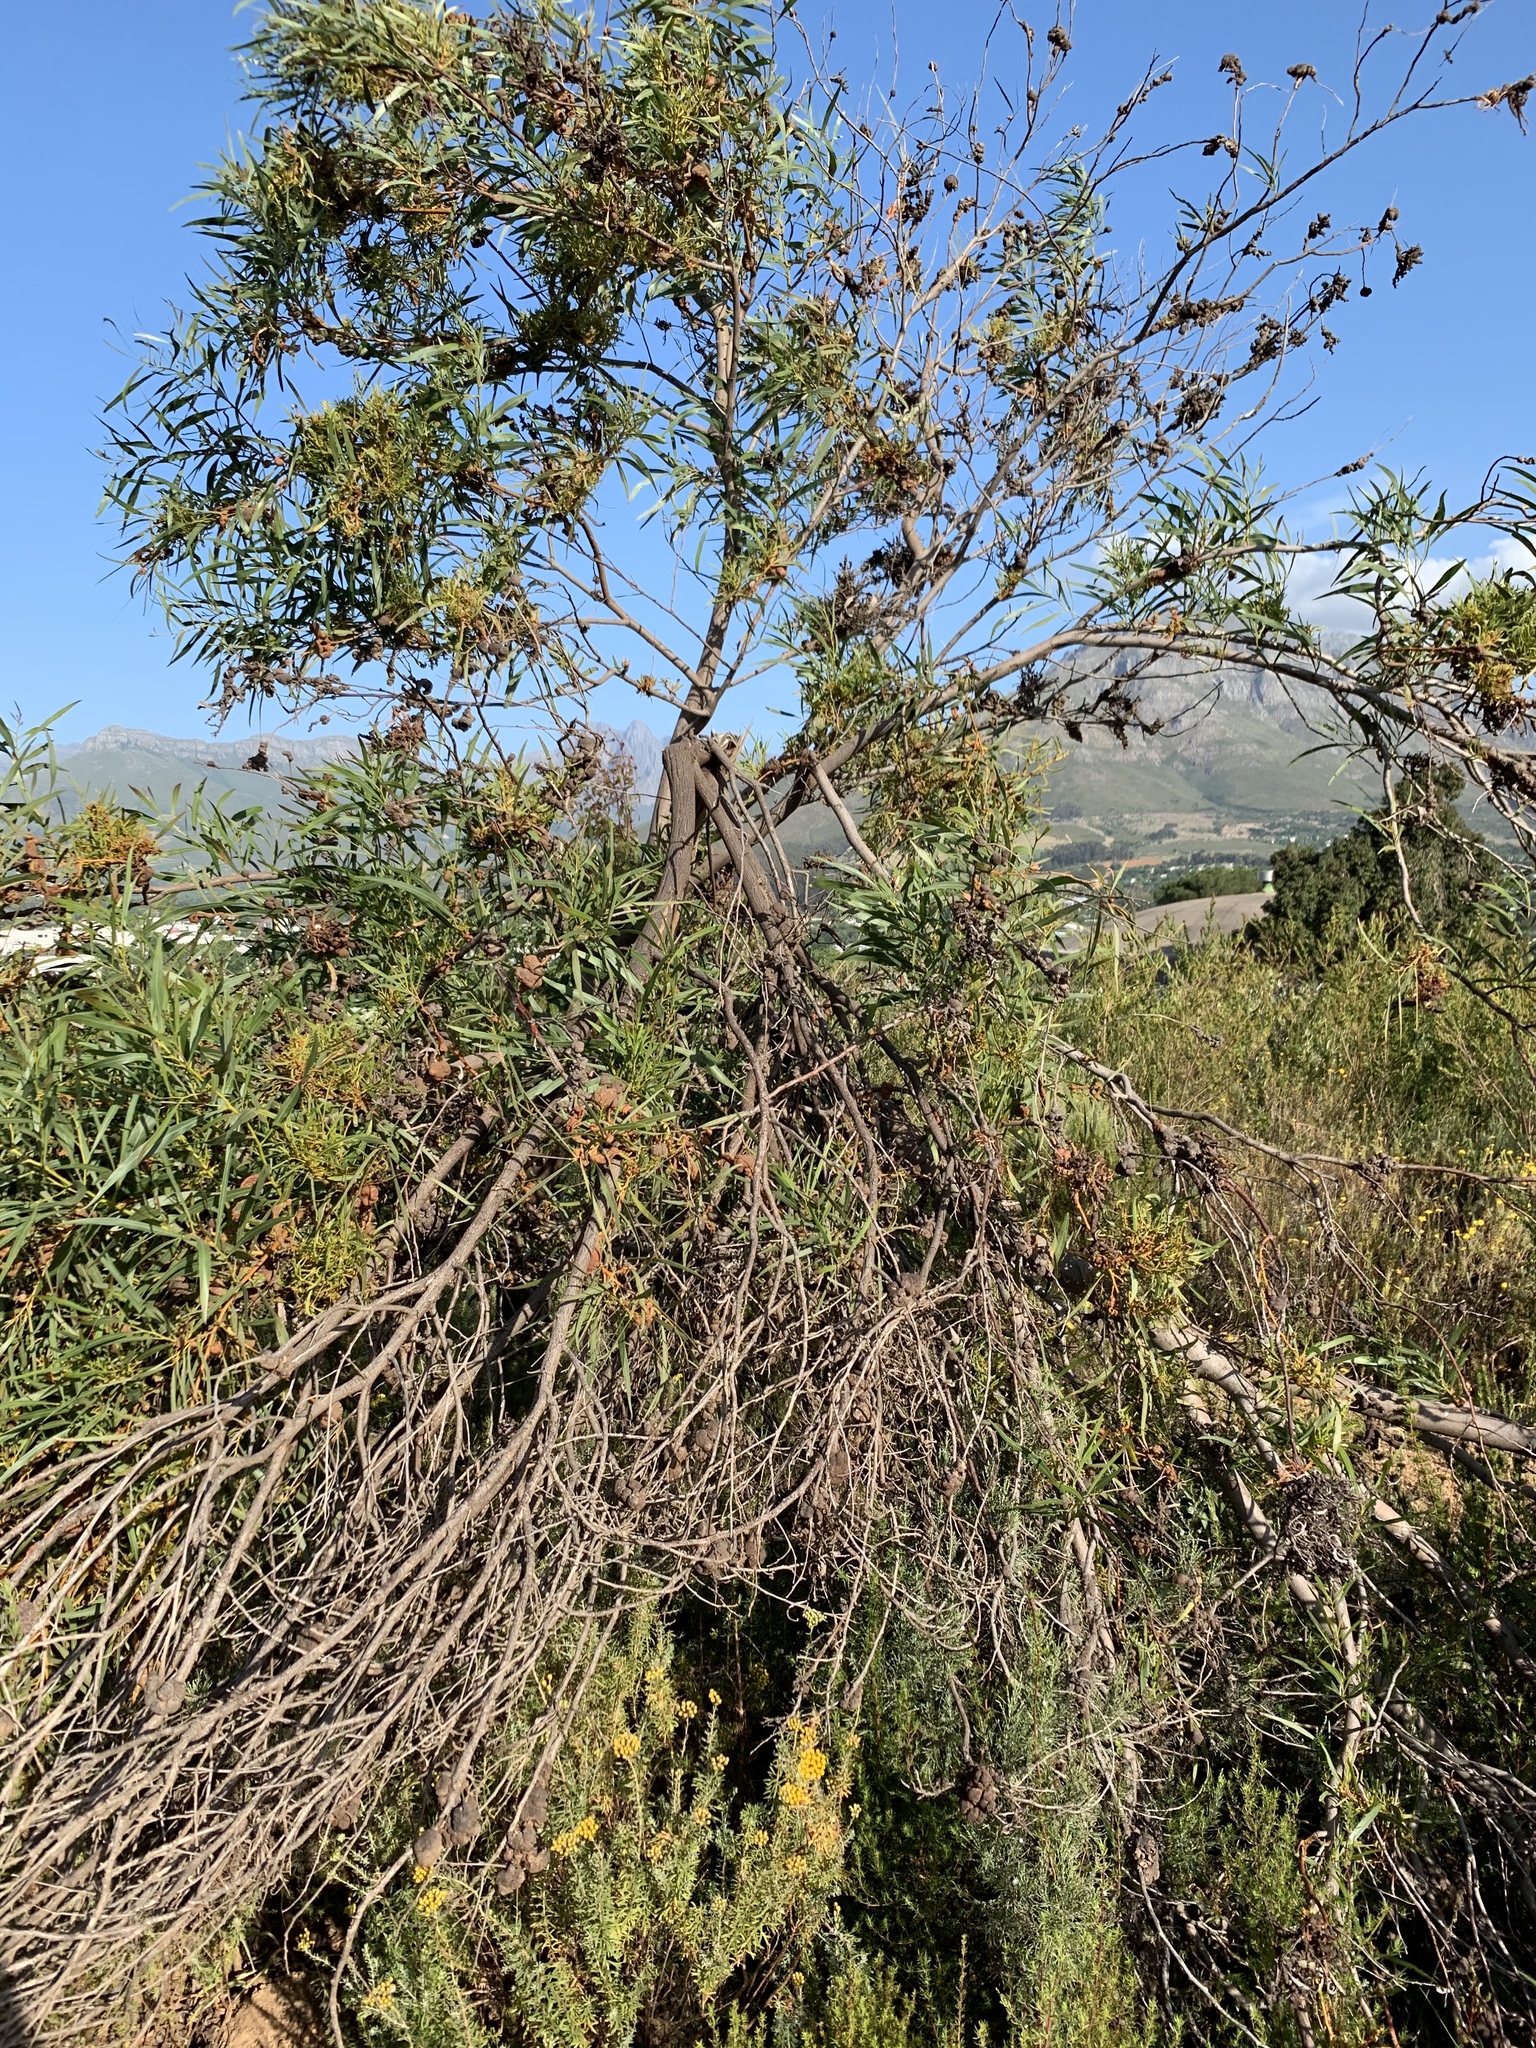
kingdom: Plantae
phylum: Tracheophyta
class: Magnoliopsida
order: Fabales
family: Fabaceae
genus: Acacia
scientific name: Acacia saligna
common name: Orange wattle
